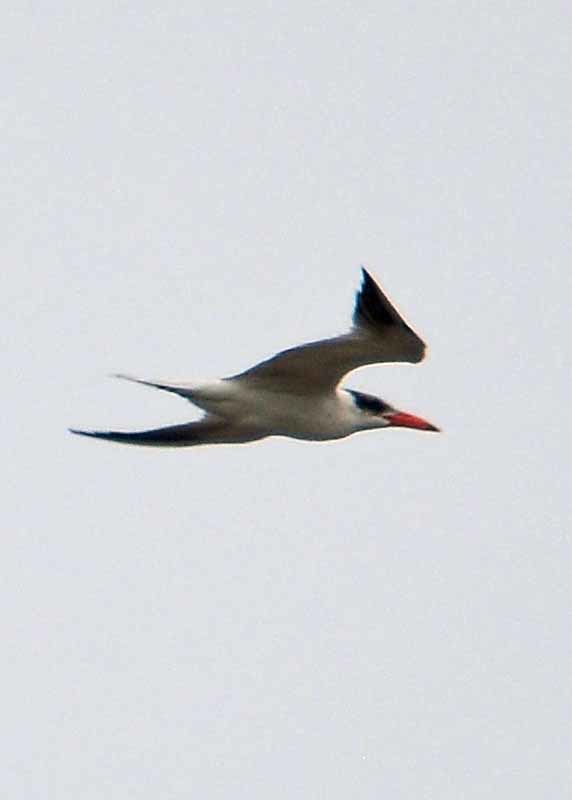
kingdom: Animalia
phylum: Chordata
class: Aves
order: Charadriiformes
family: Laridae
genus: Hydroprogne
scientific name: Hydroprogne caspia
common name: Caspian tern
